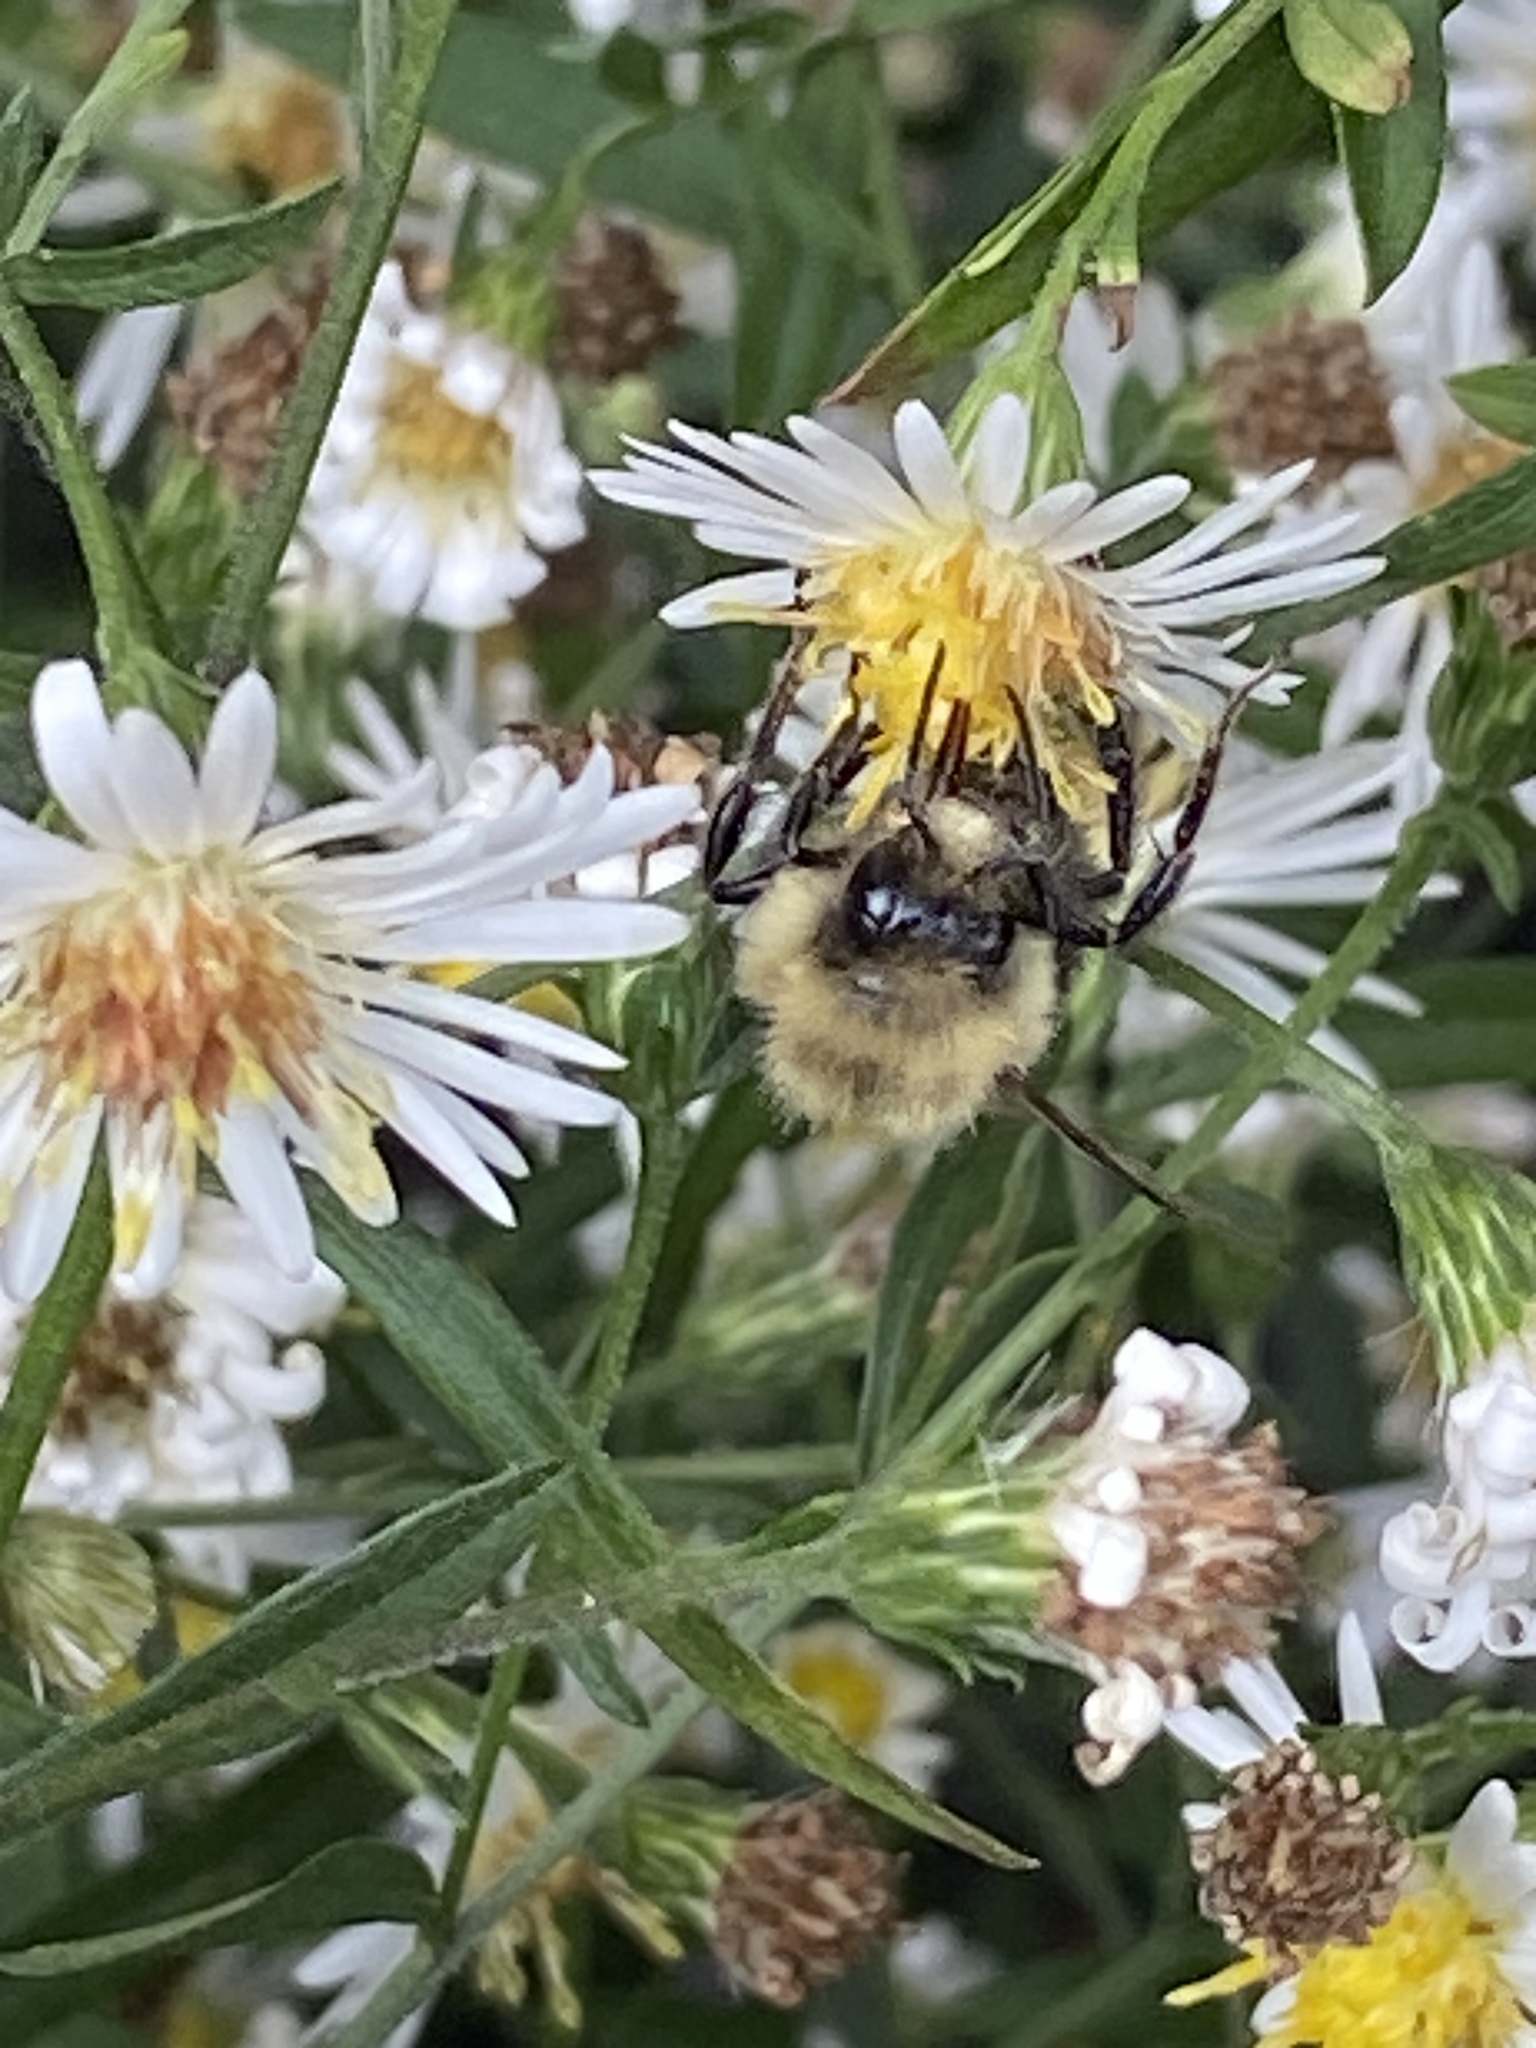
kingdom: Animalia
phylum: Arthropoda
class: Insecta
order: Hymenoptera
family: Apidae
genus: Bombus
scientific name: Bombus impatiens
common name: Common eastern bumble bee
